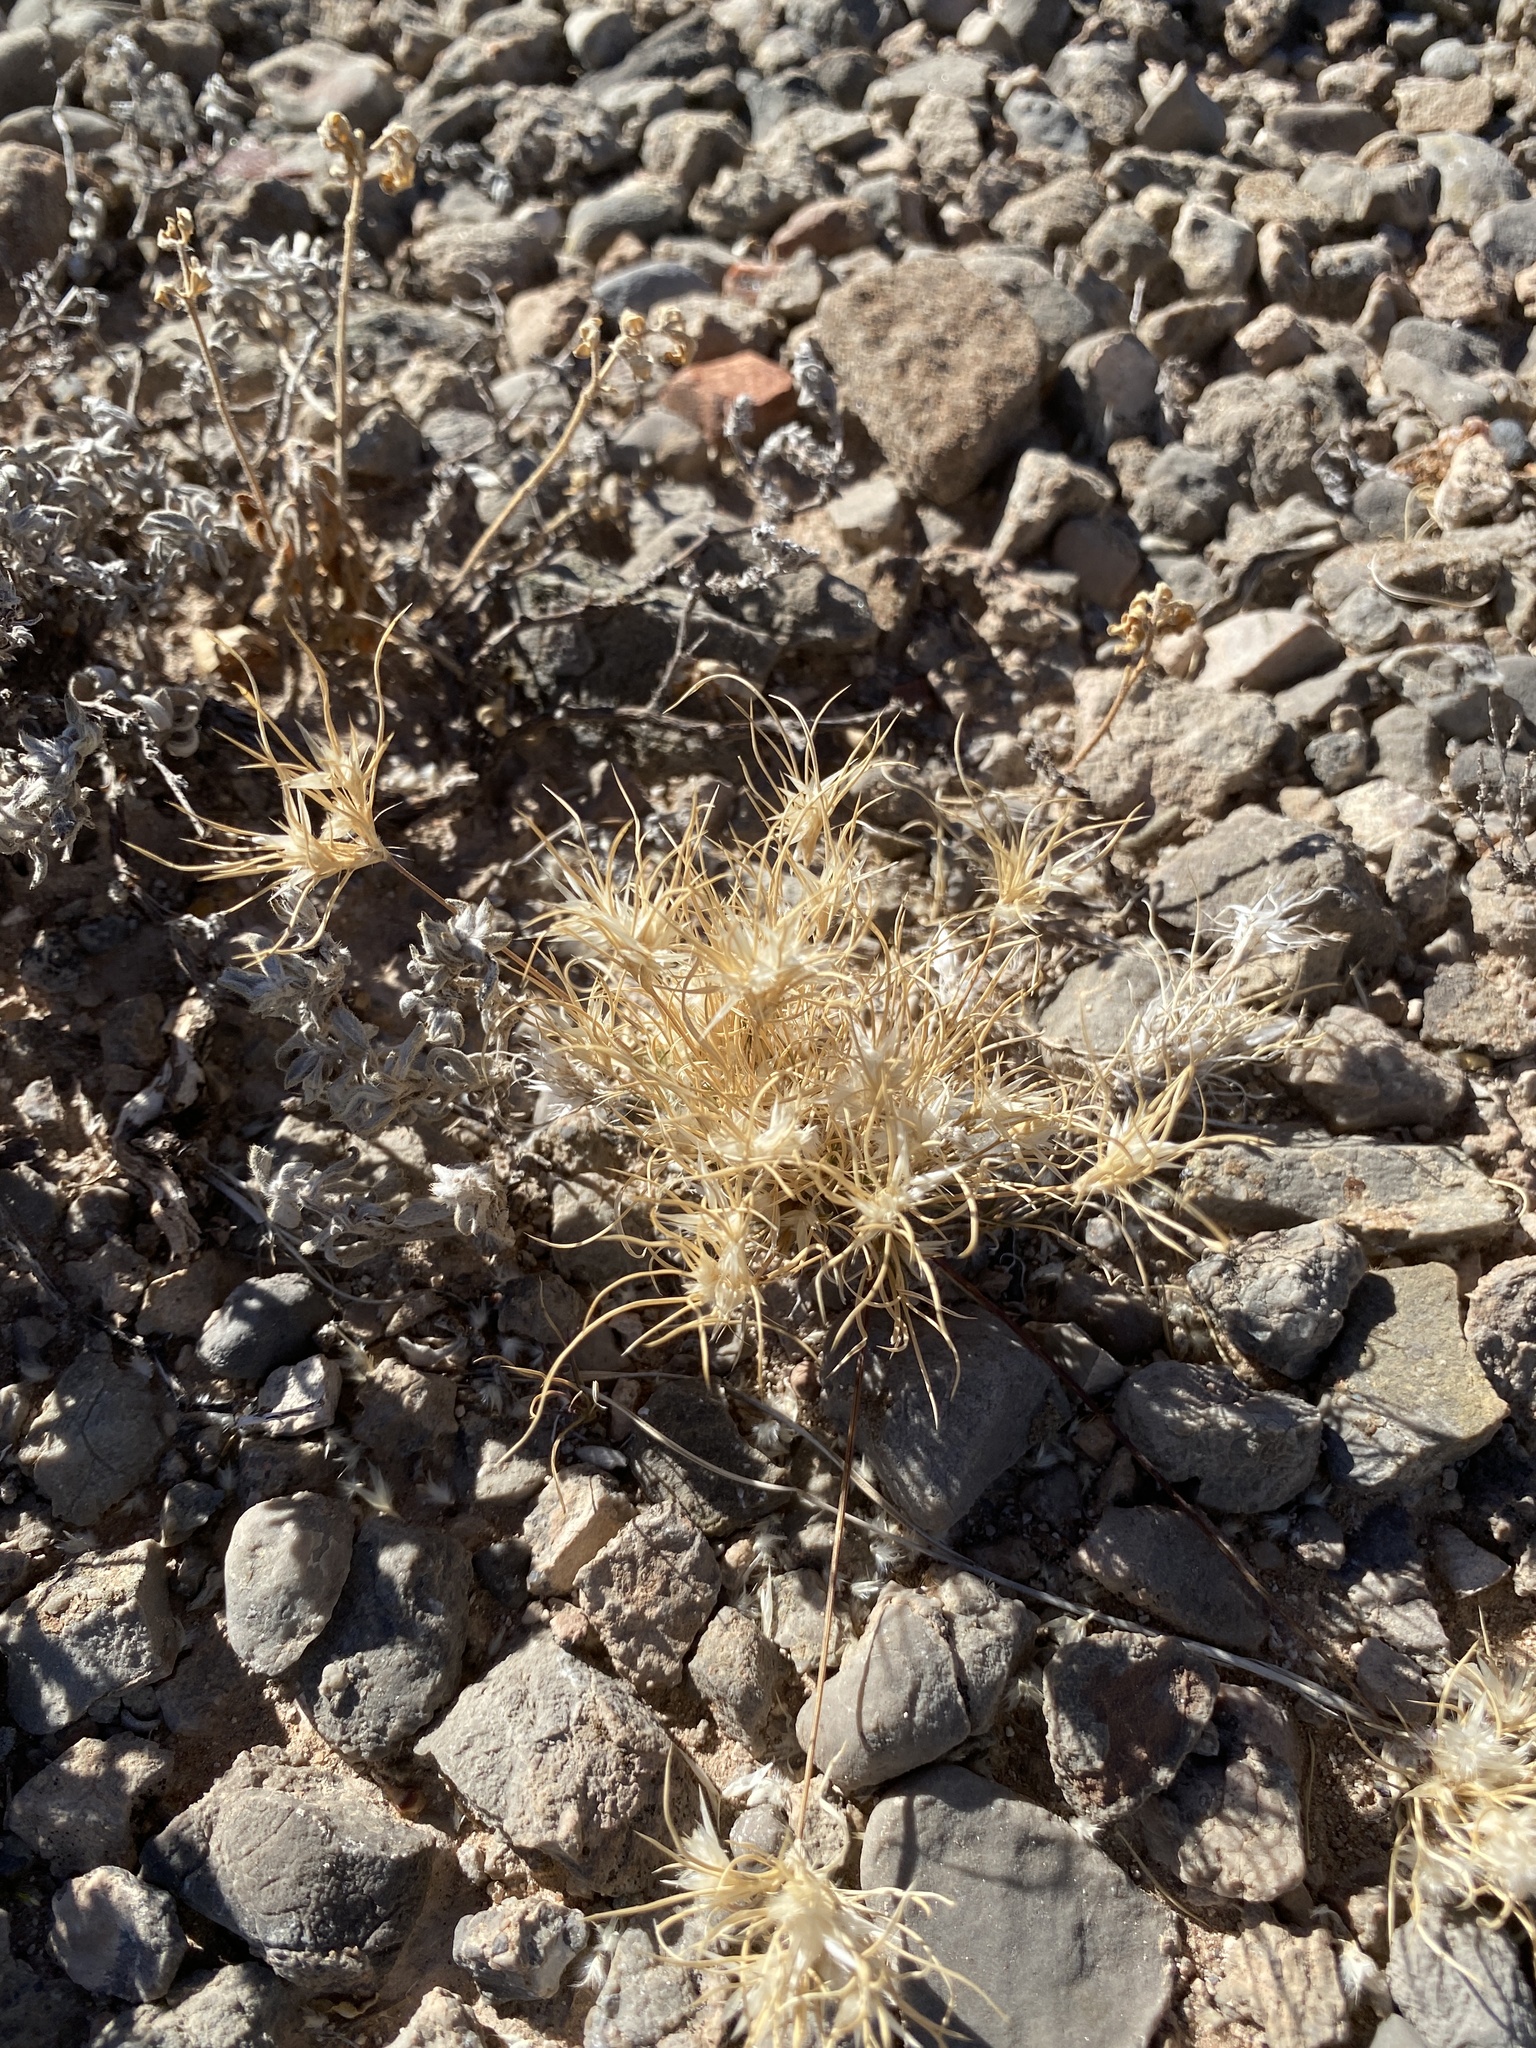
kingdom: Plantae
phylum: Tracheophyta
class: Liliopsida
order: Poales
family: Poaceae
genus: Dasyochloa
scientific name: Dasyochloa pulchella
